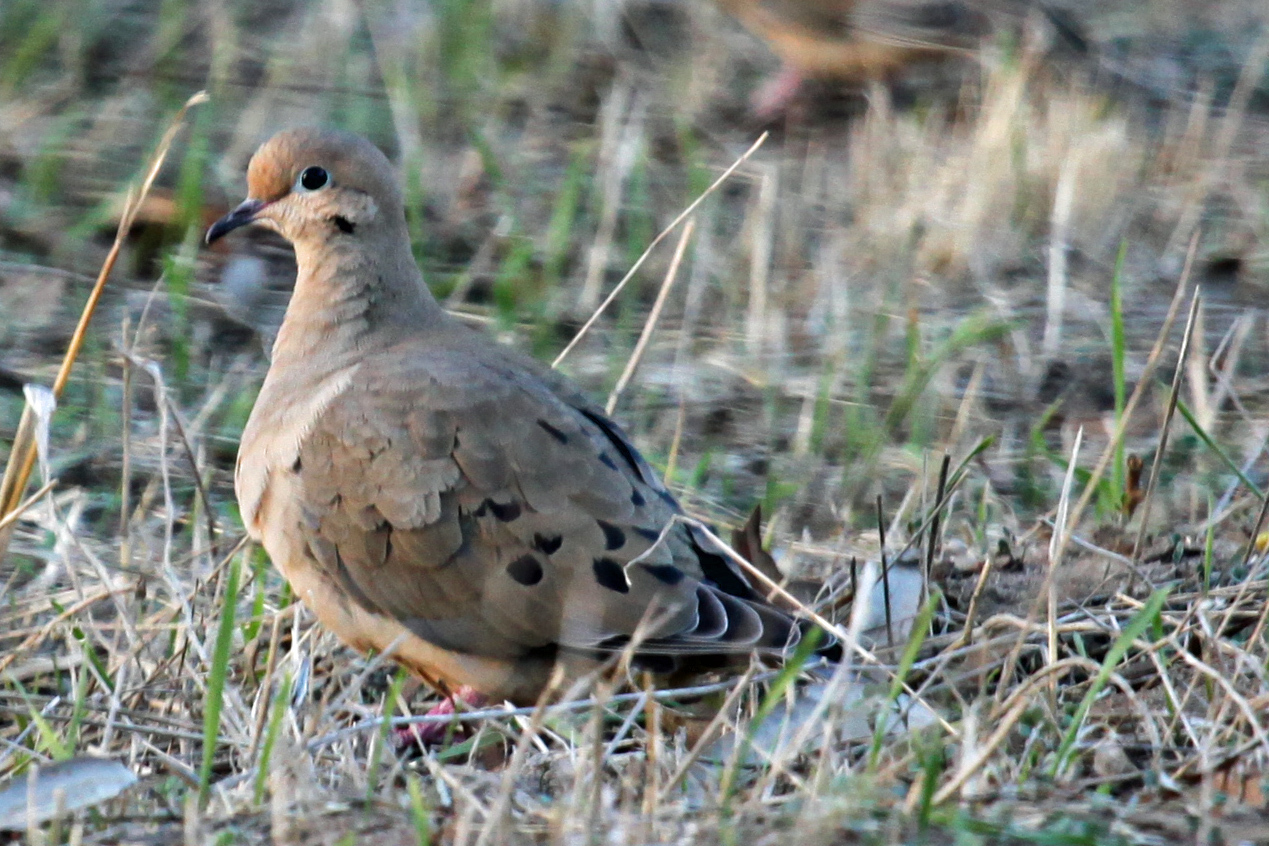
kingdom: Animalia
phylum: Chordata
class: Aves
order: Columbiformes
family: Columbidae
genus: Zenaida
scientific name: Zenaida macroura
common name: Mourning dove
